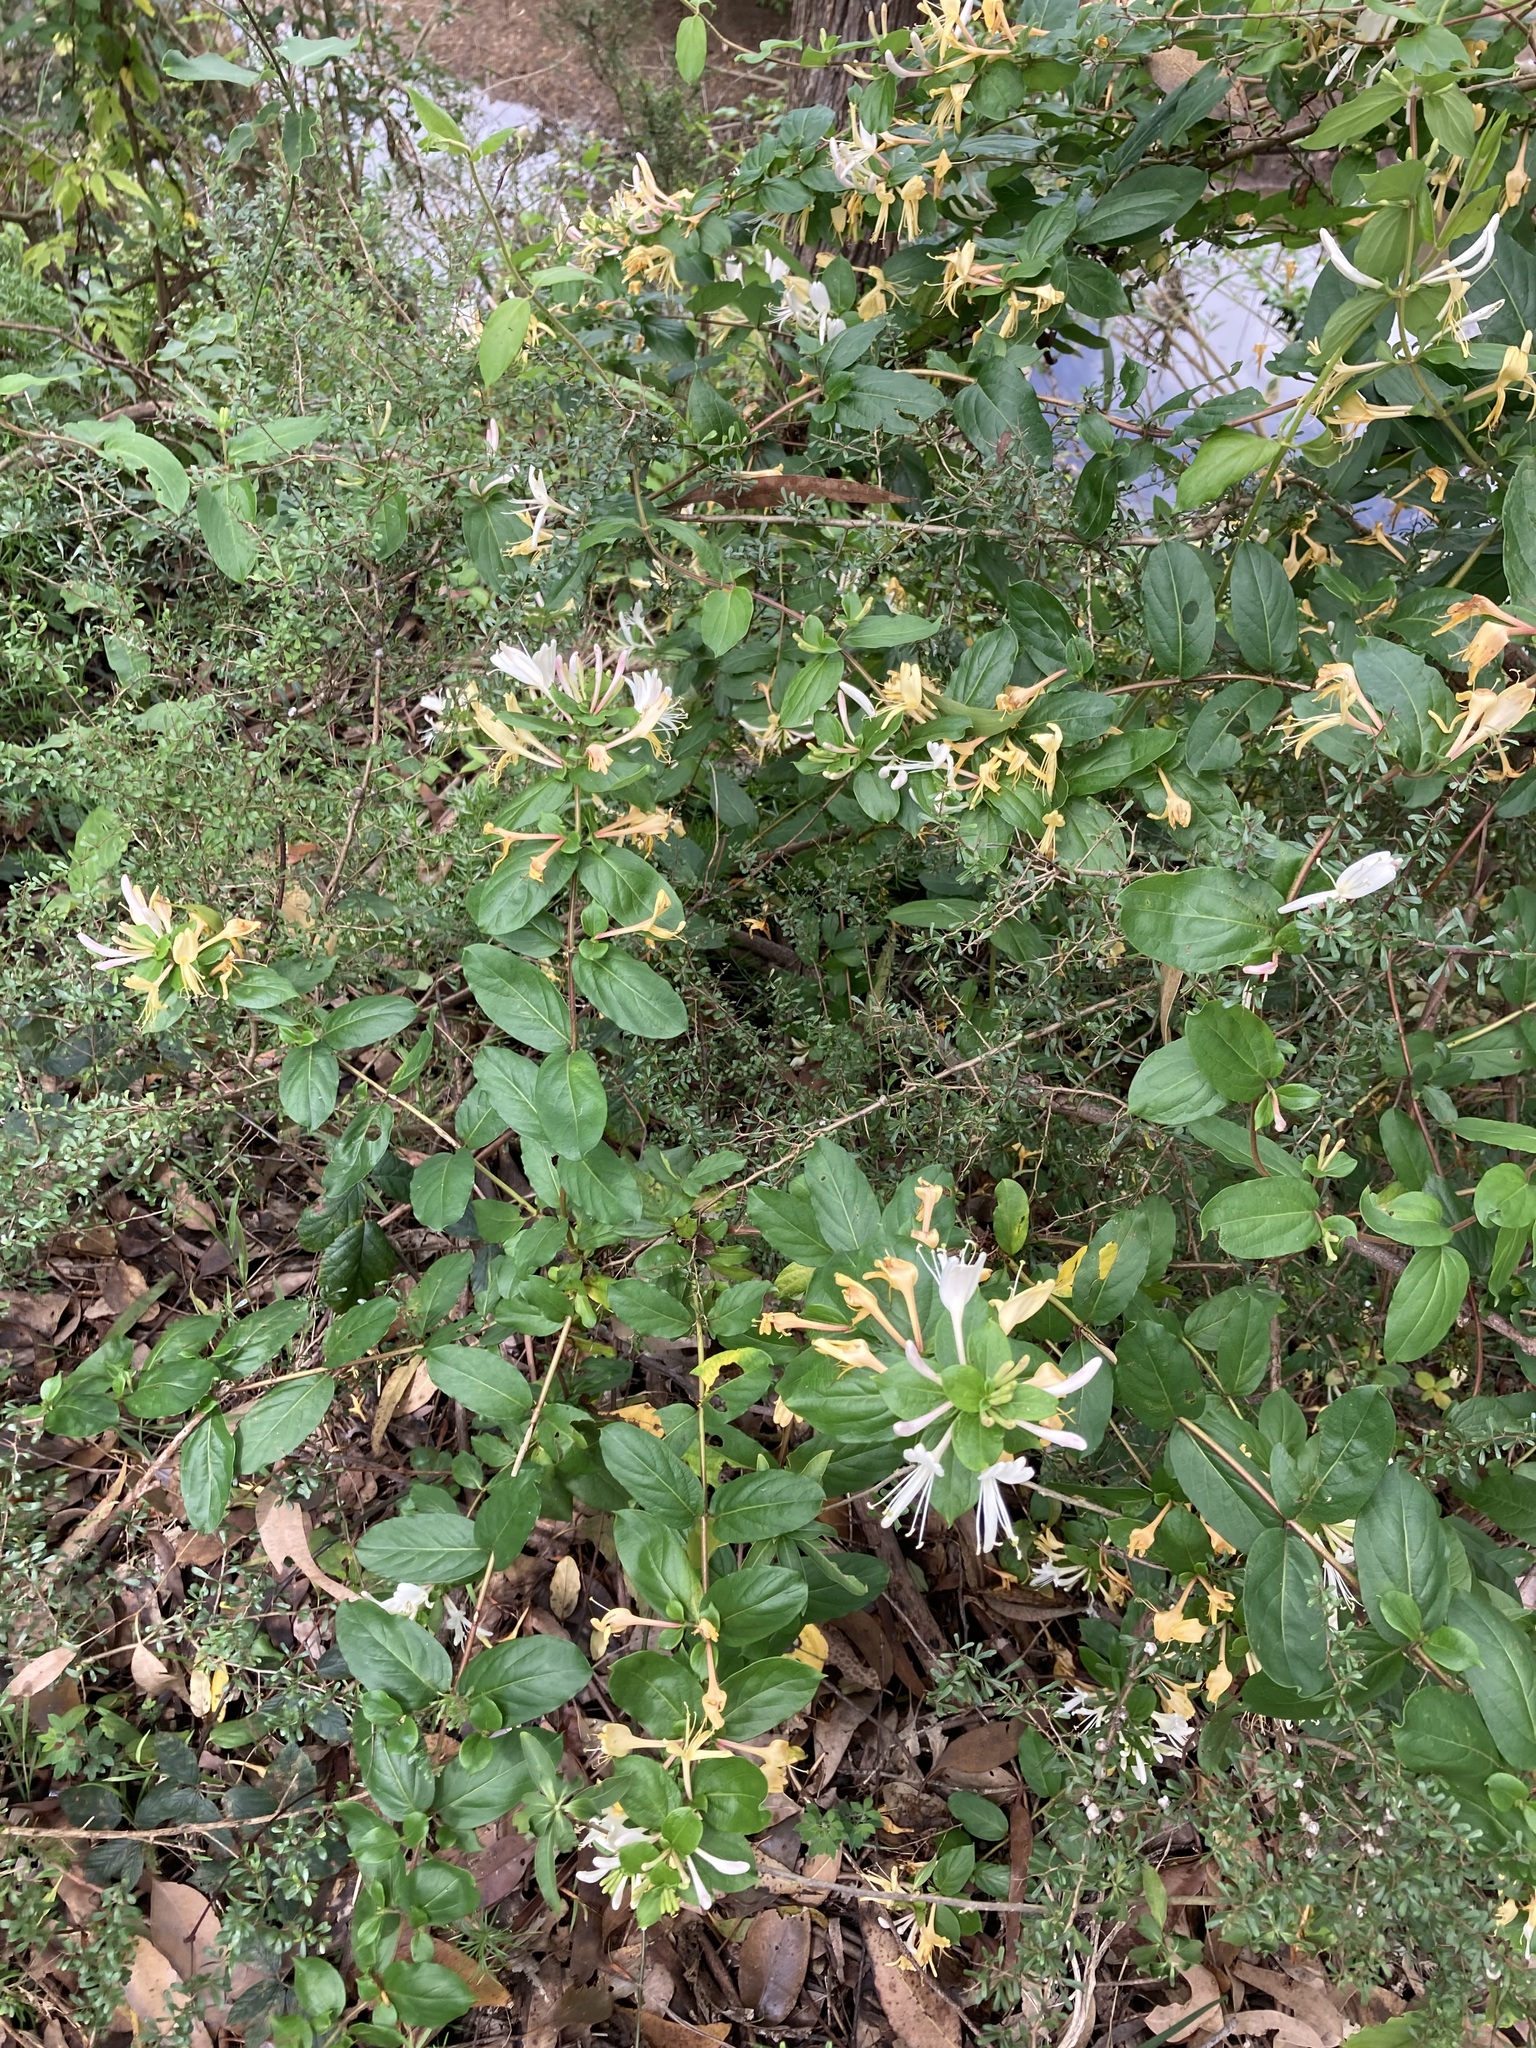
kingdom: Plantae
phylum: Tracheophyta
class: Magnoliopsida
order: Dipsacales
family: Caprifoliaceae
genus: Lonicera
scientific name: Lonicera japonica
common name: Japanese honeysuckle
